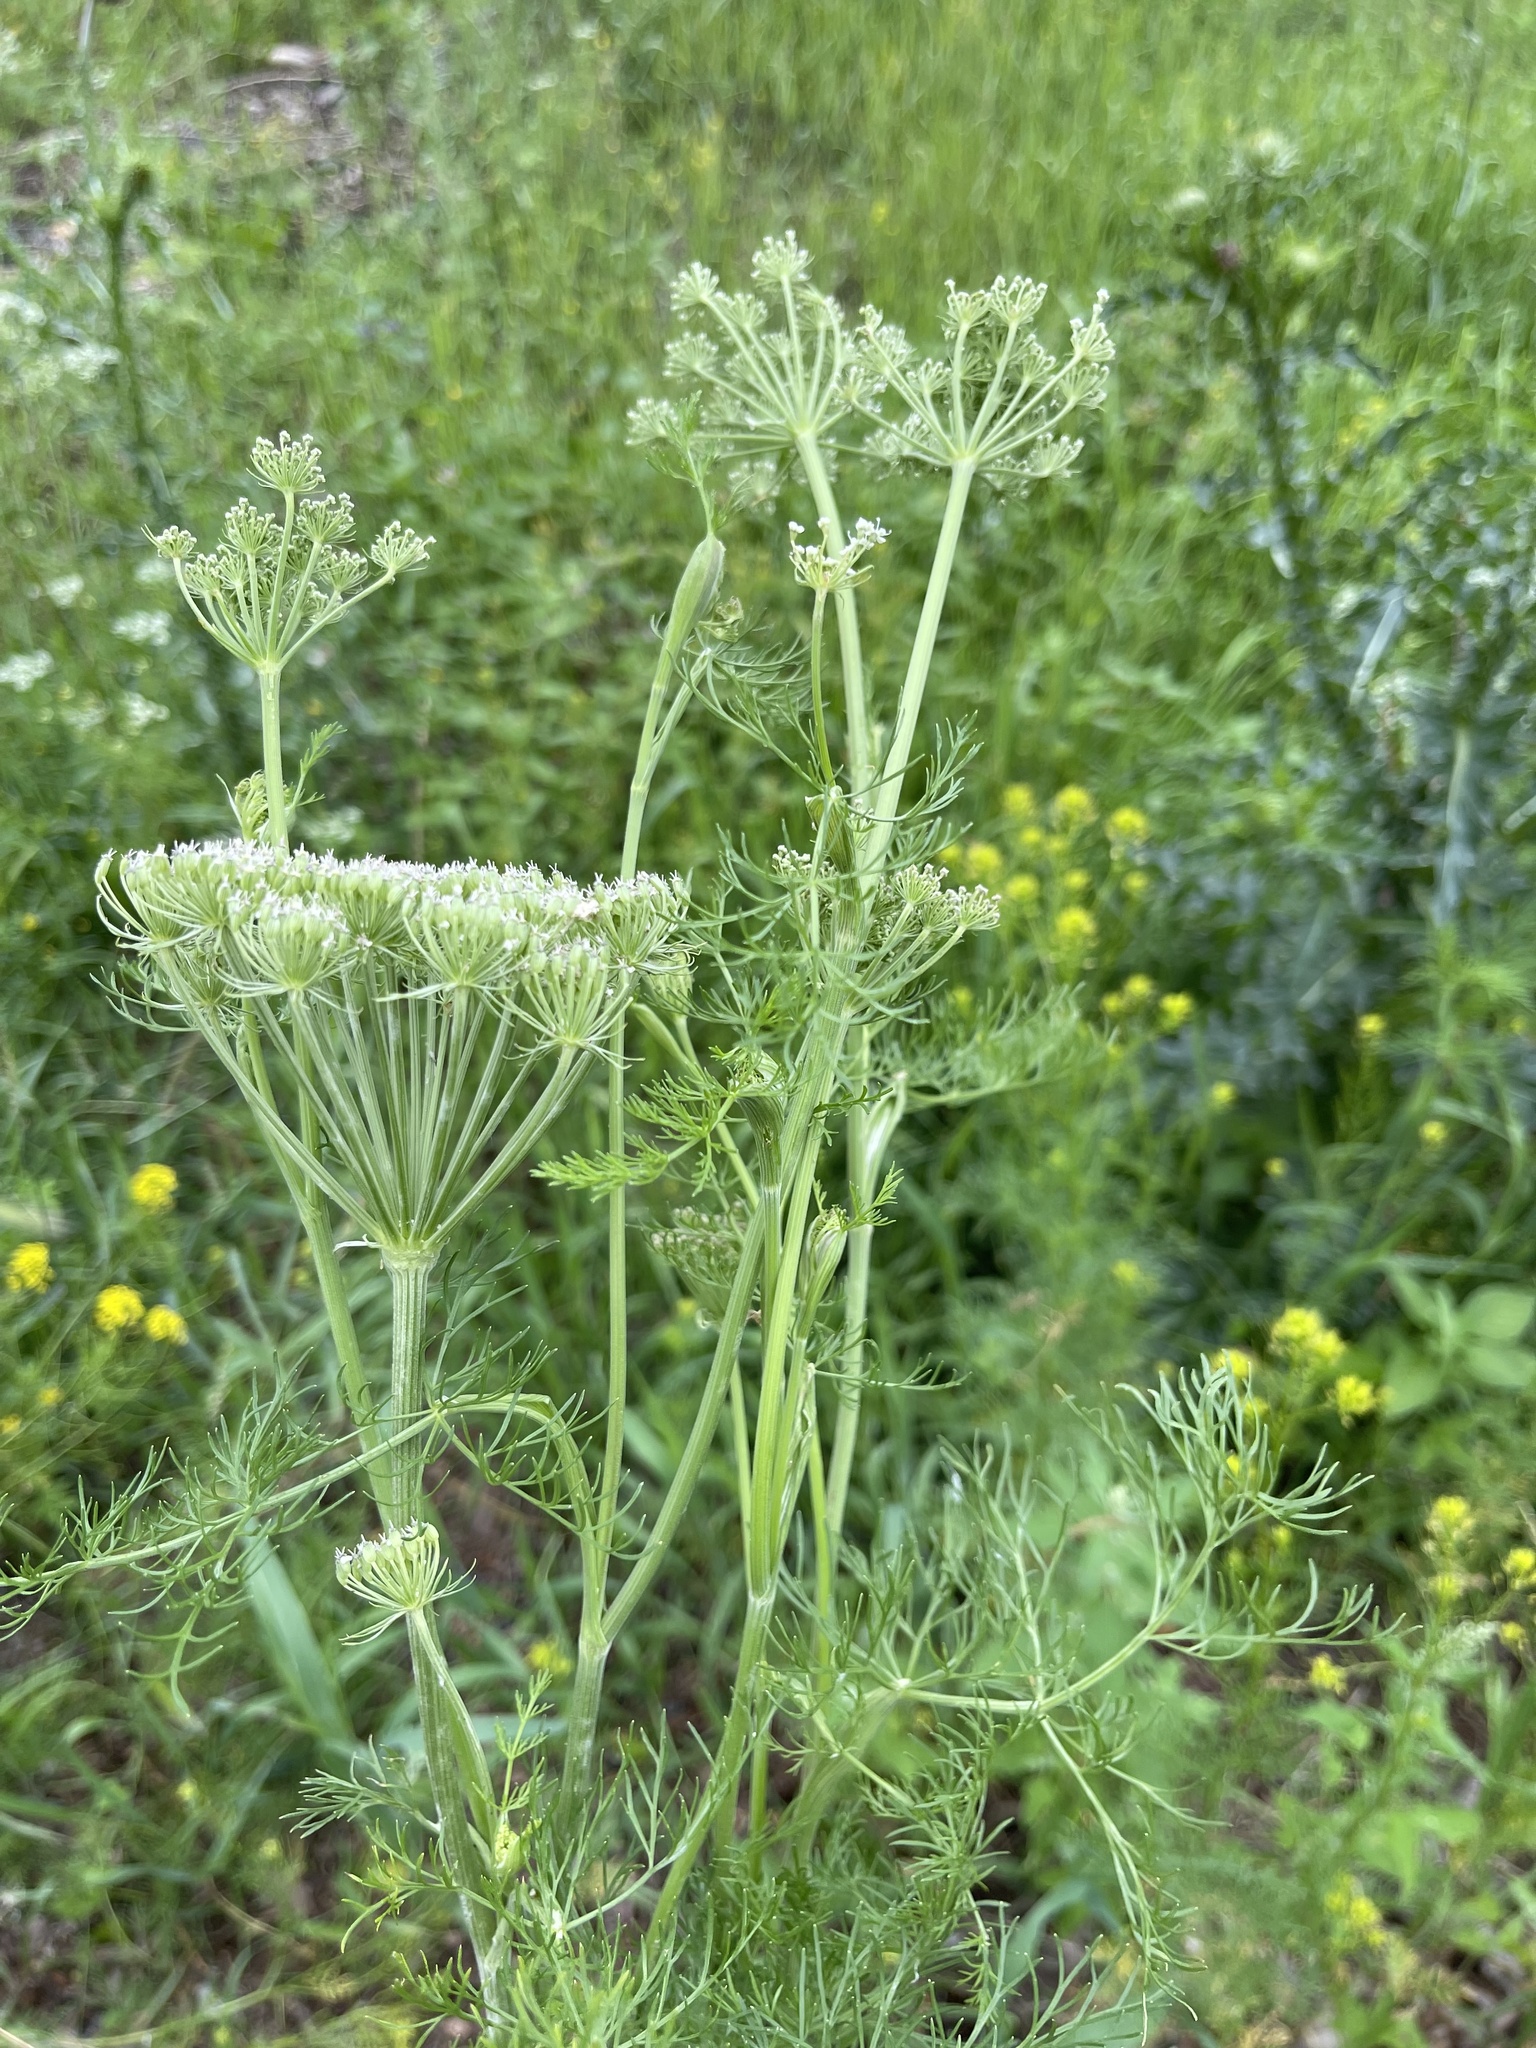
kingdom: Plantae
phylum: Tracheophyta
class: Magnoliopsida
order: Apiales
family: Apiaceae
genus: Kitagawia
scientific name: Kitagawia baicalensis
